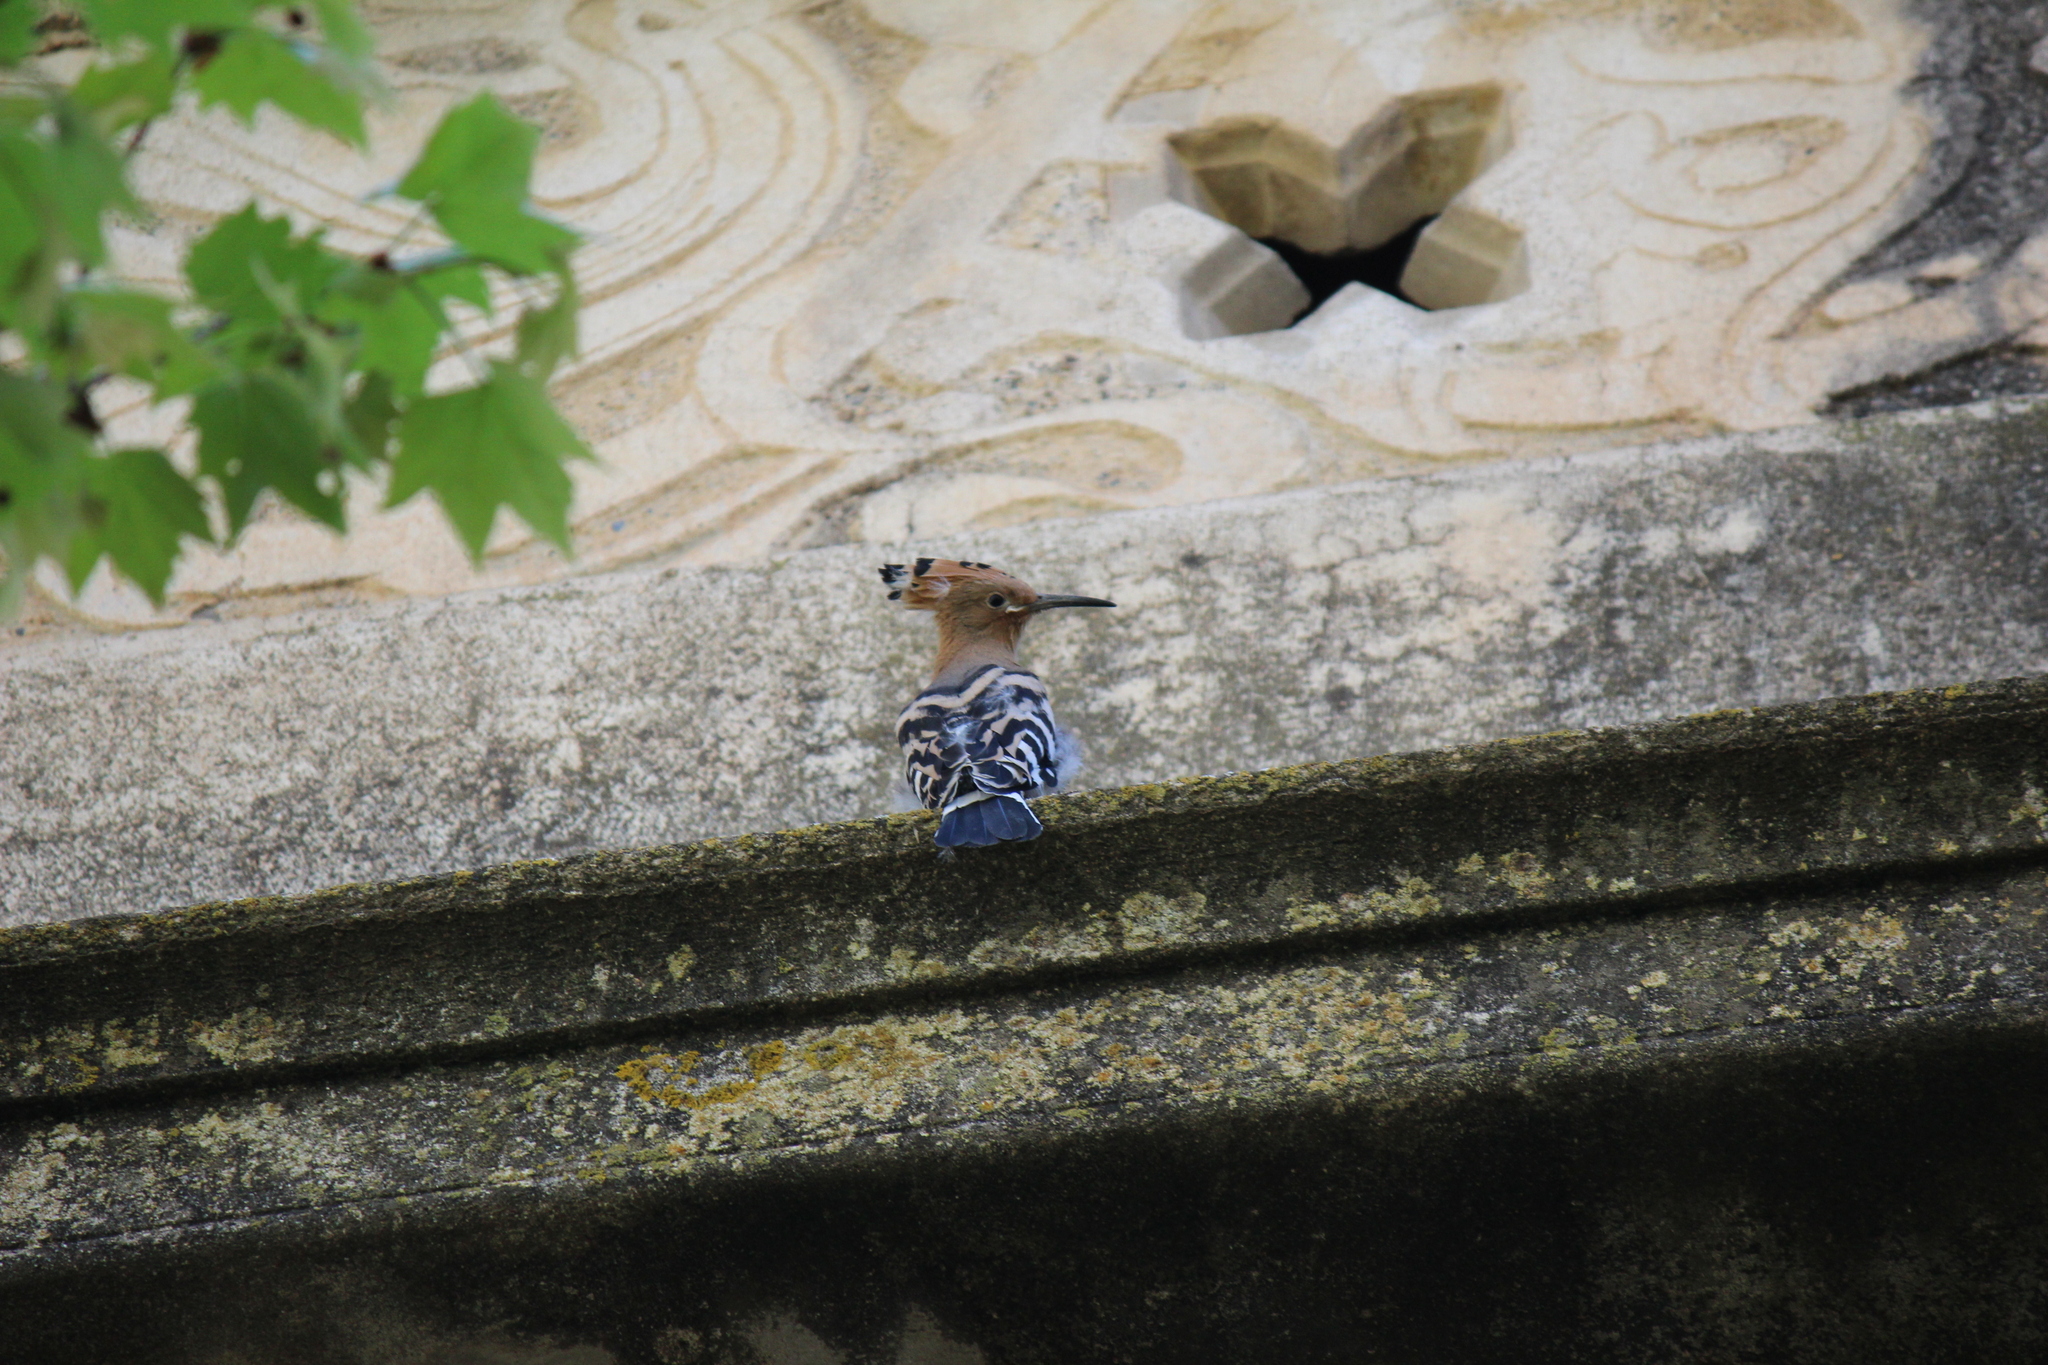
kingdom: Animalia
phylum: Chordata
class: Aves
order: Bucerotiformes
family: Upupidae
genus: Upupa
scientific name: Upupa epops
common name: Eurasian hoopoe
